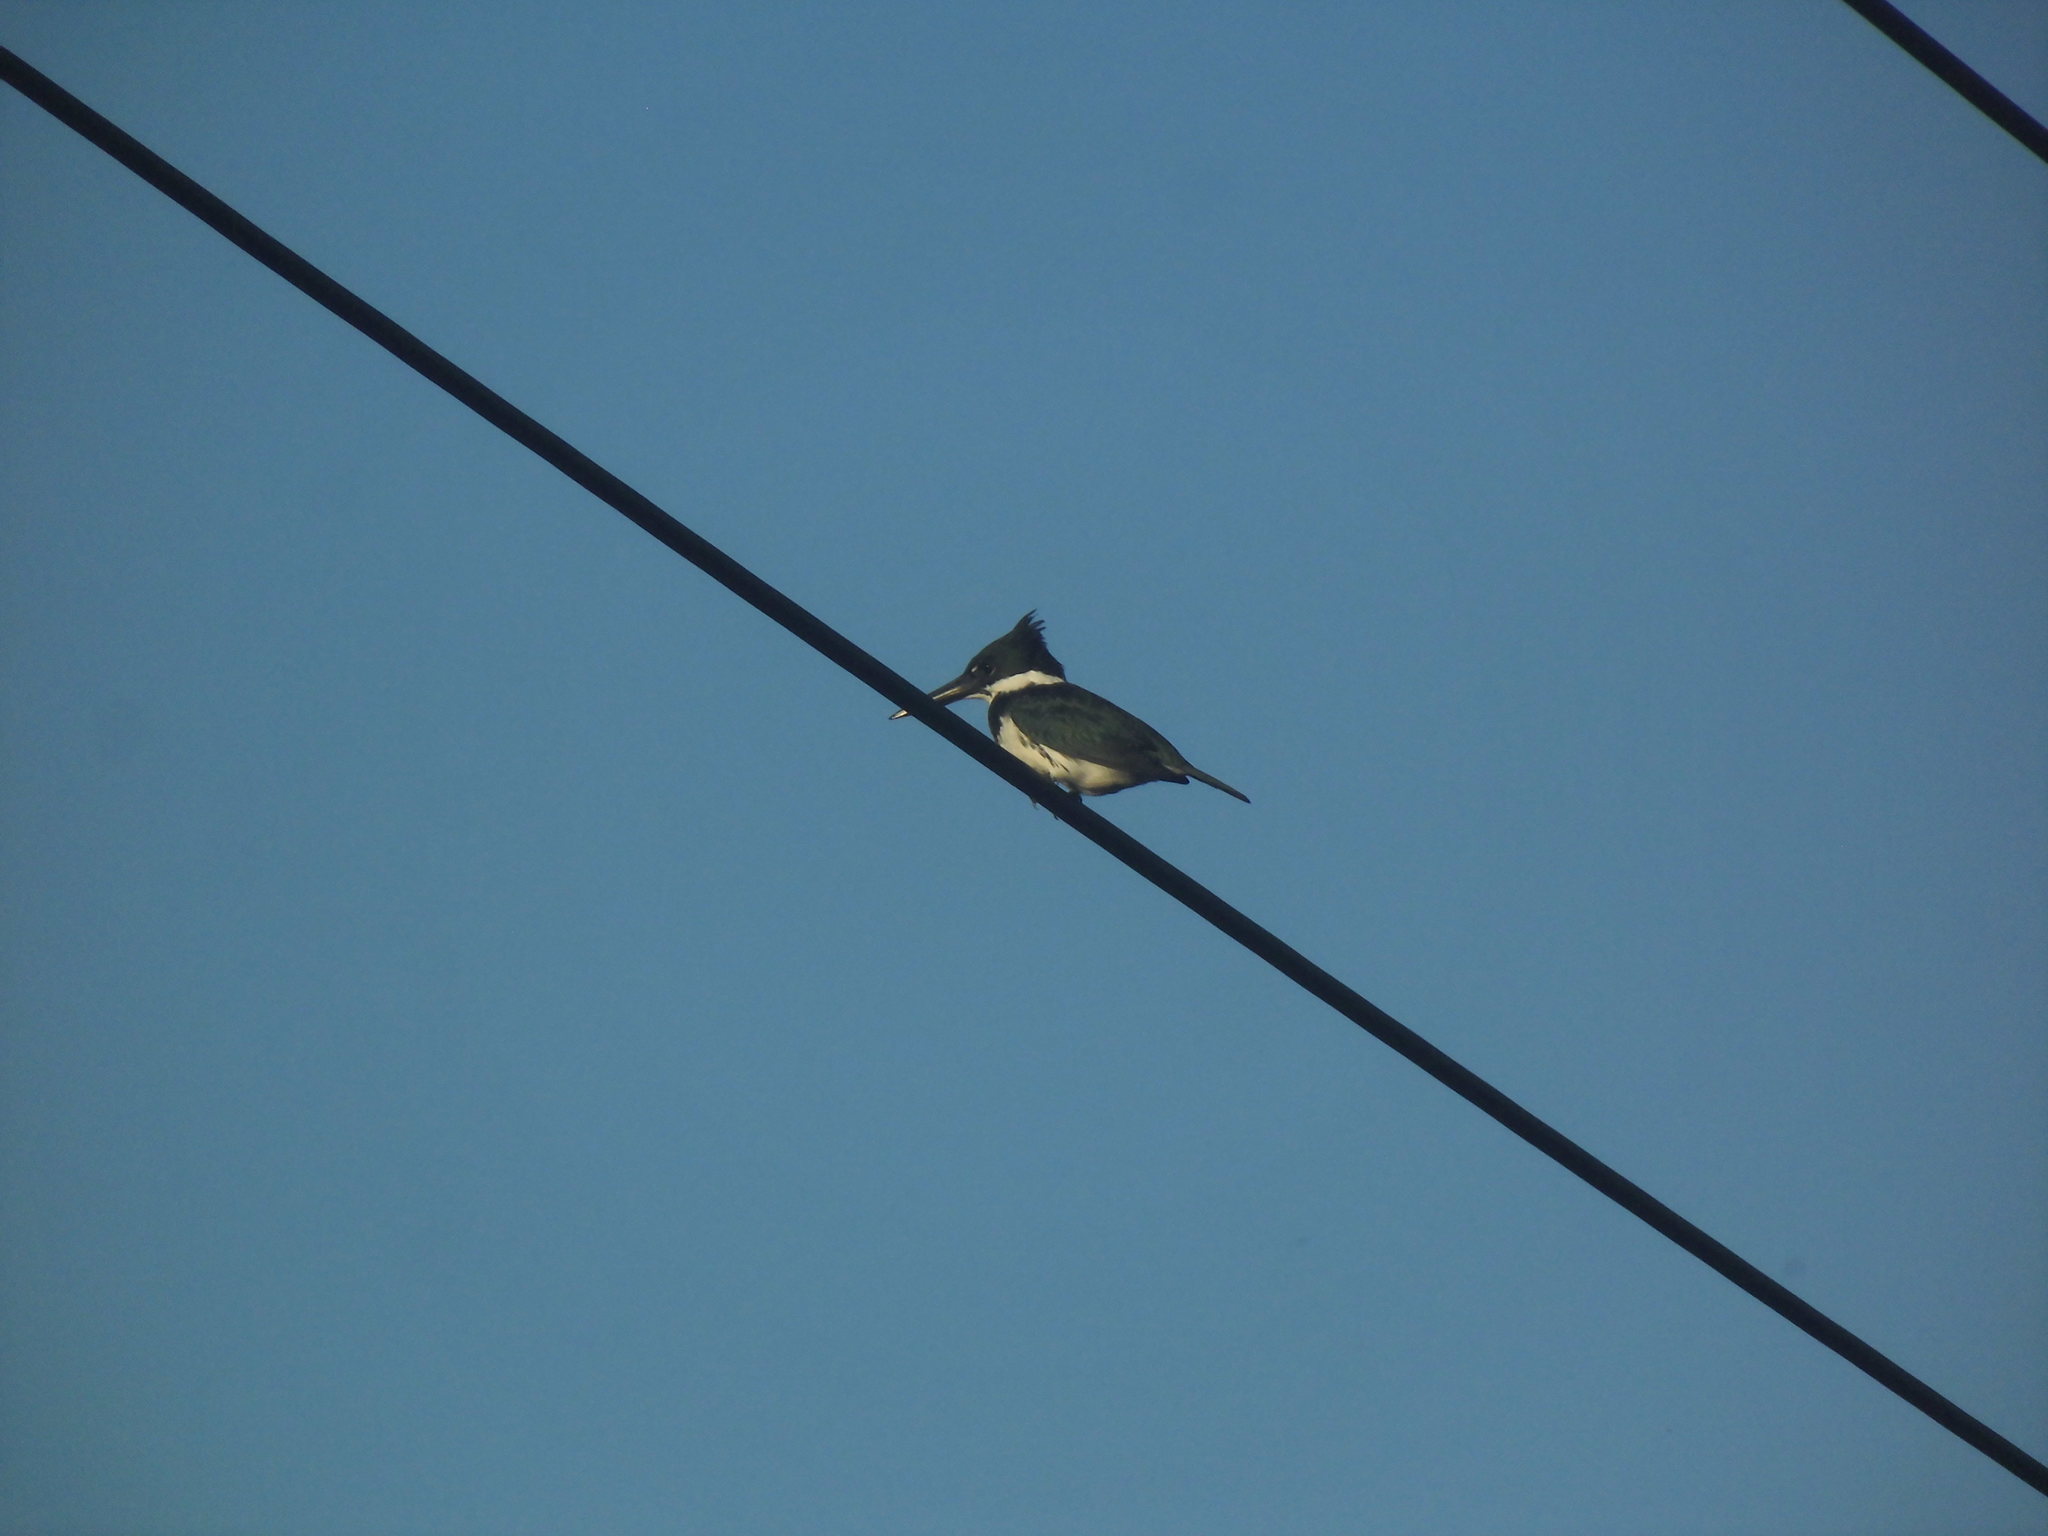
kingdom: Animalia
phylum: Chordata
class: Aves
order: Coraciiformes
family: Alcedinidae
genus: Chloroceryle
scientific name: Chloroceryle amazona
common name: Amazon kingfisher
